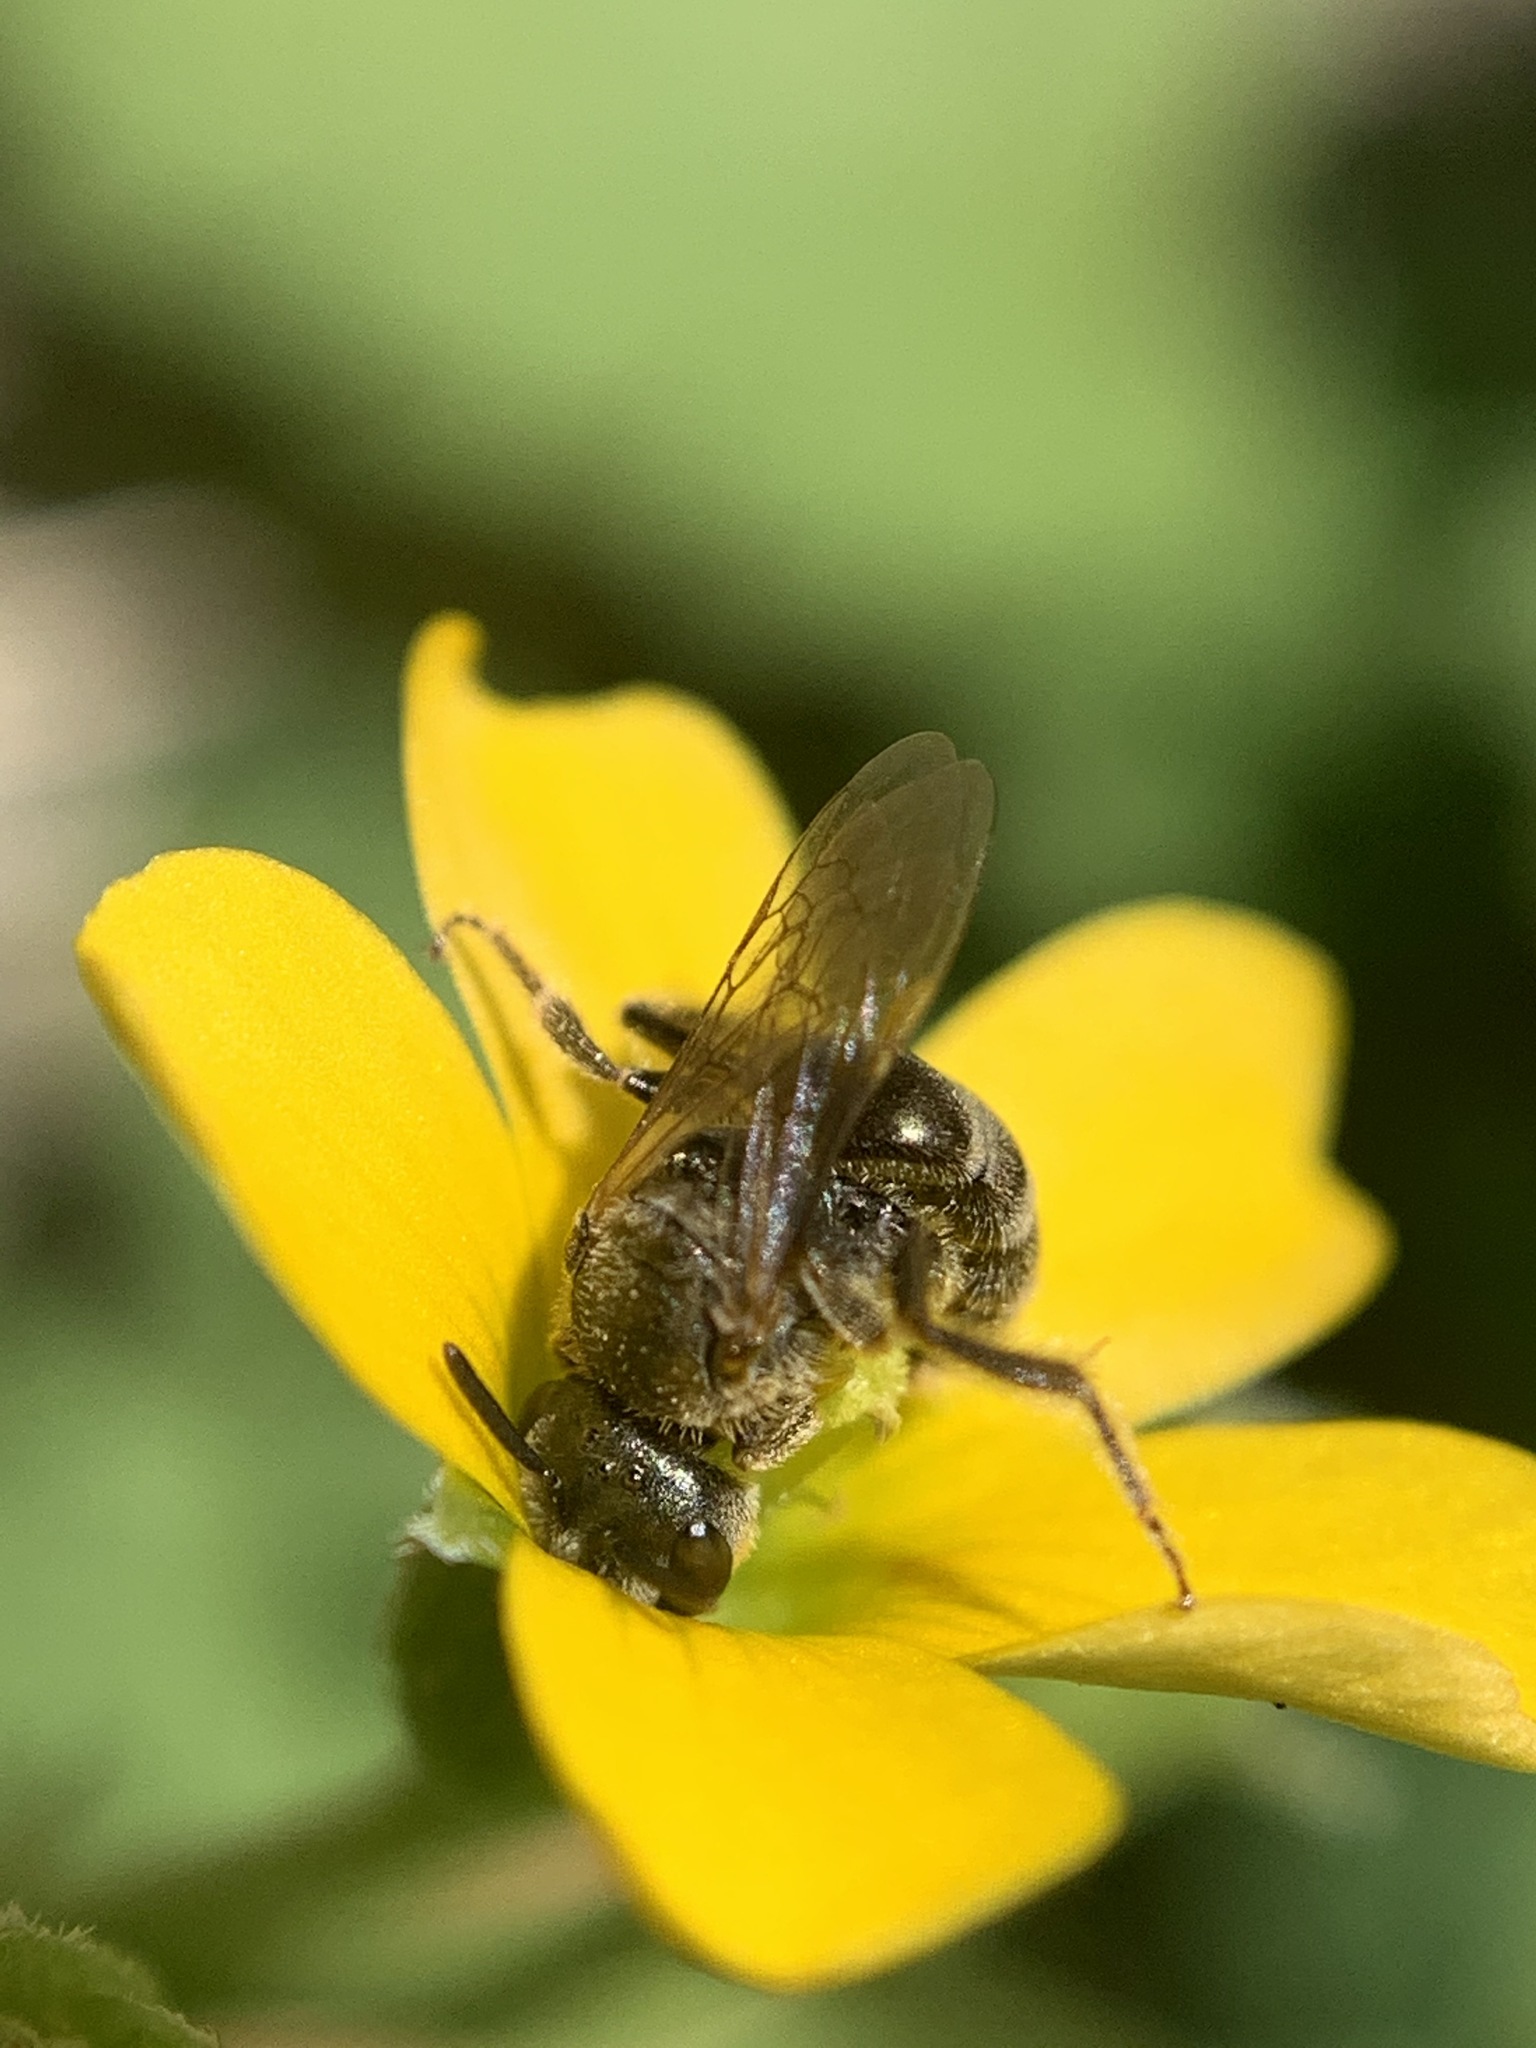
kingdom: Animalia
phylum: Arthropoda
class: Insecta
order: Hymenoptera
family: Halictidae
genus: Halictus
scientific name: Halictus tripartitus
